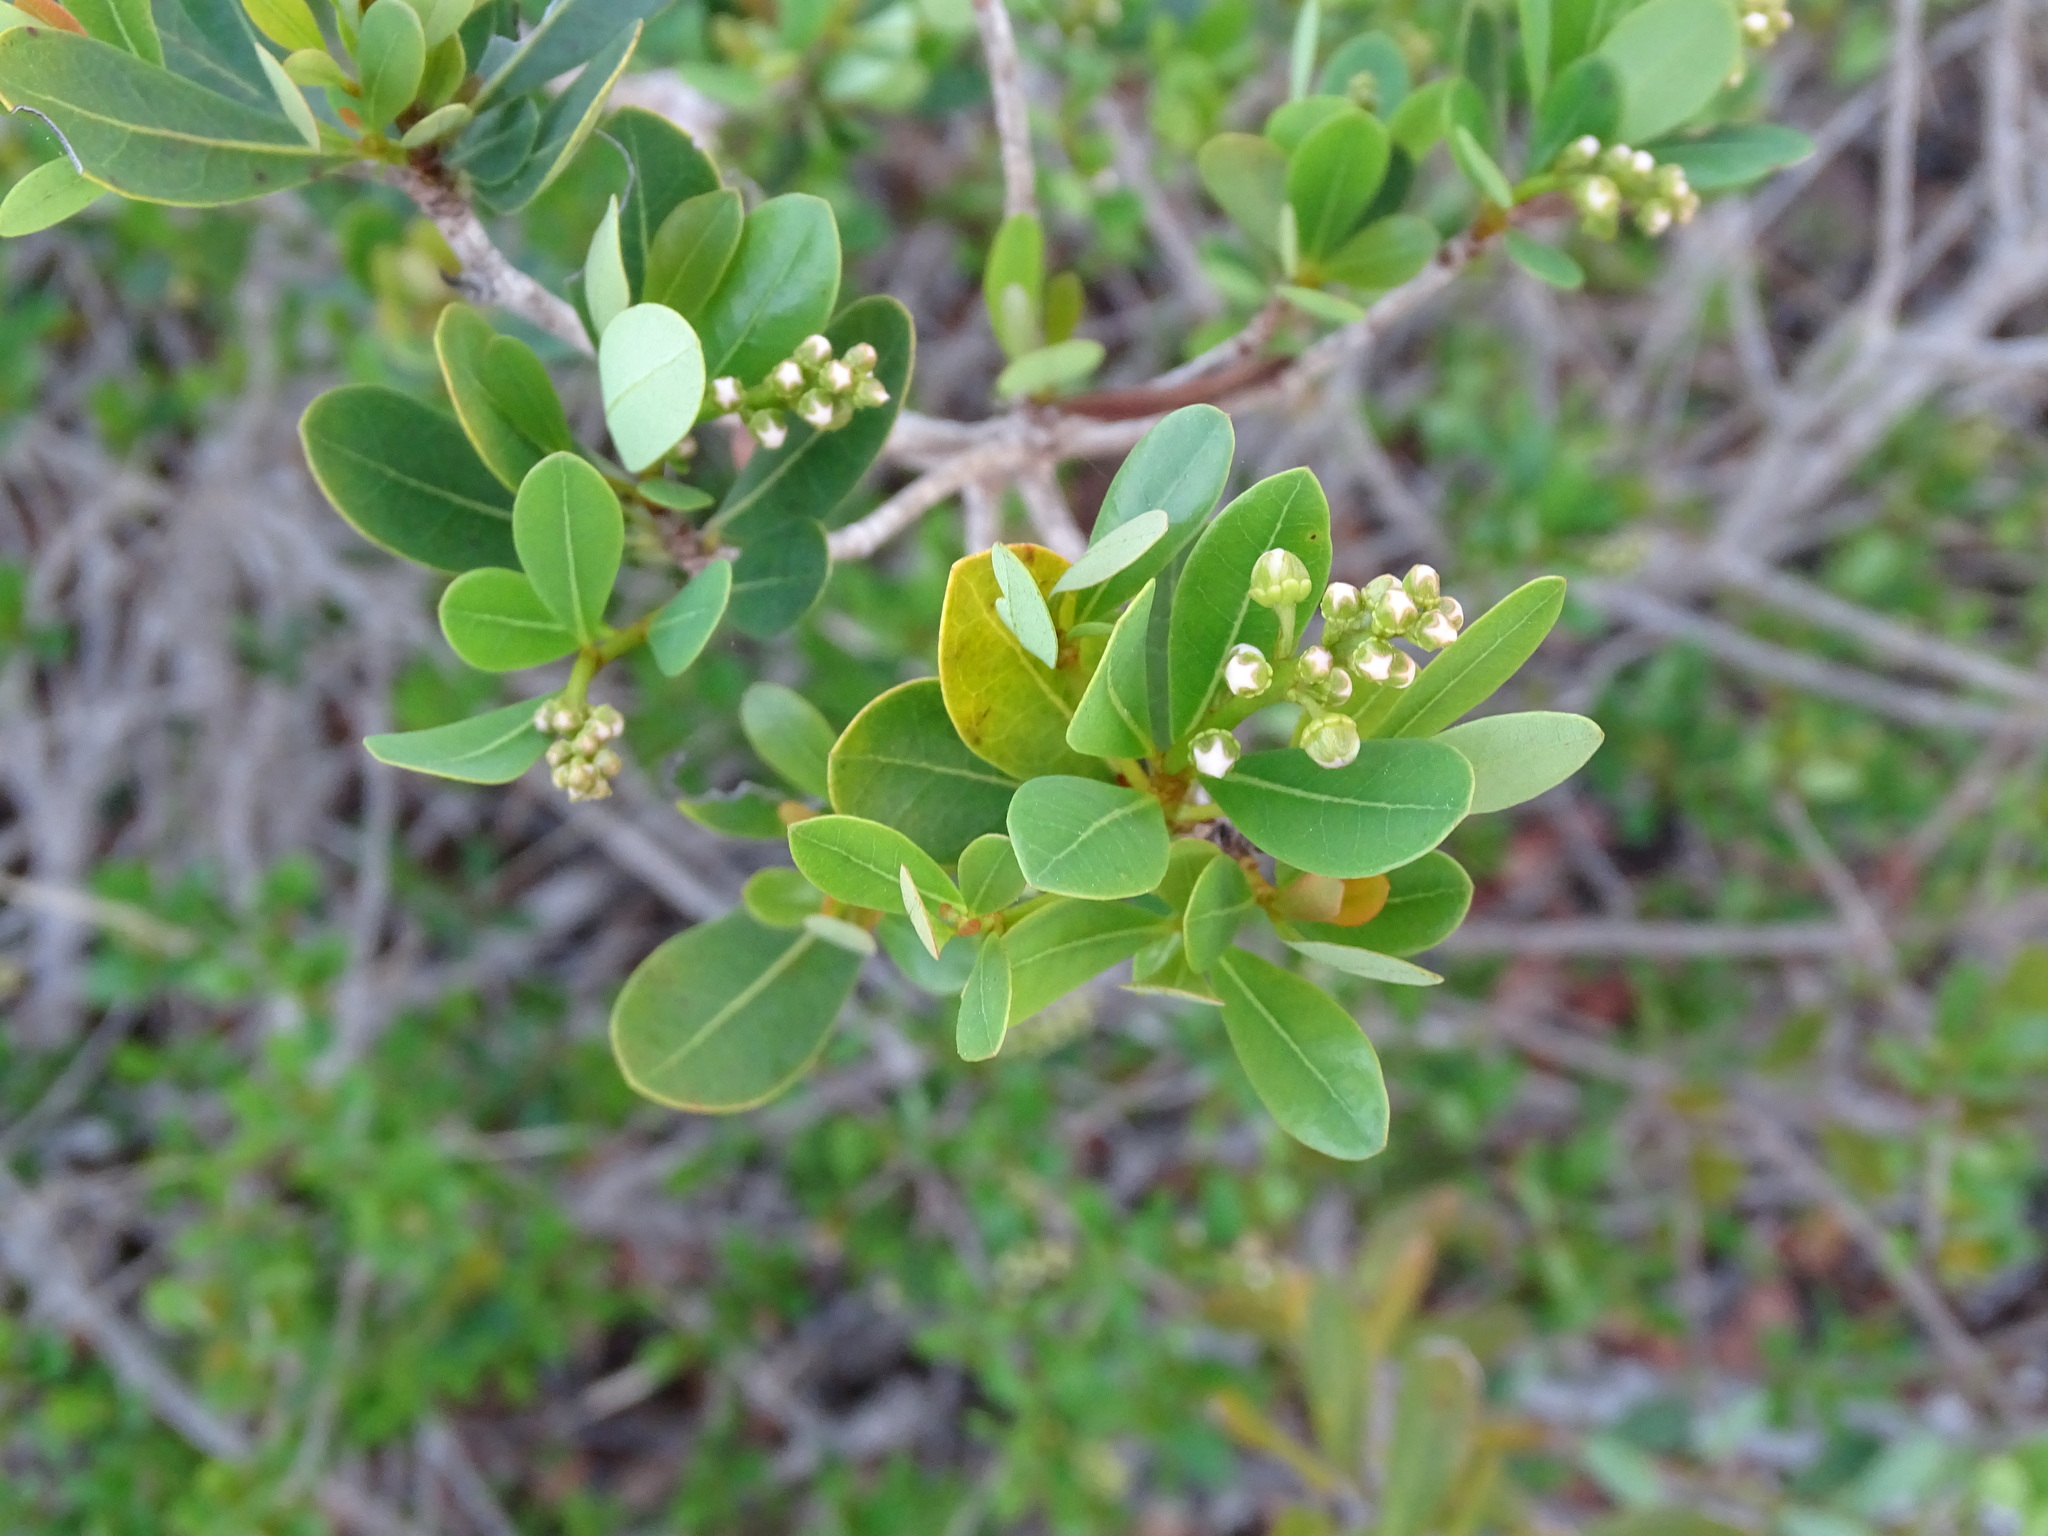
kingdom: Plantae
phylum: Tracheophyta
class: Magnoliopsida
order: Malpighiales
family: Malpighiaceae
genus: Byrsonima
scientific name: Byrsonima lucida
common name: Clam-cherry
